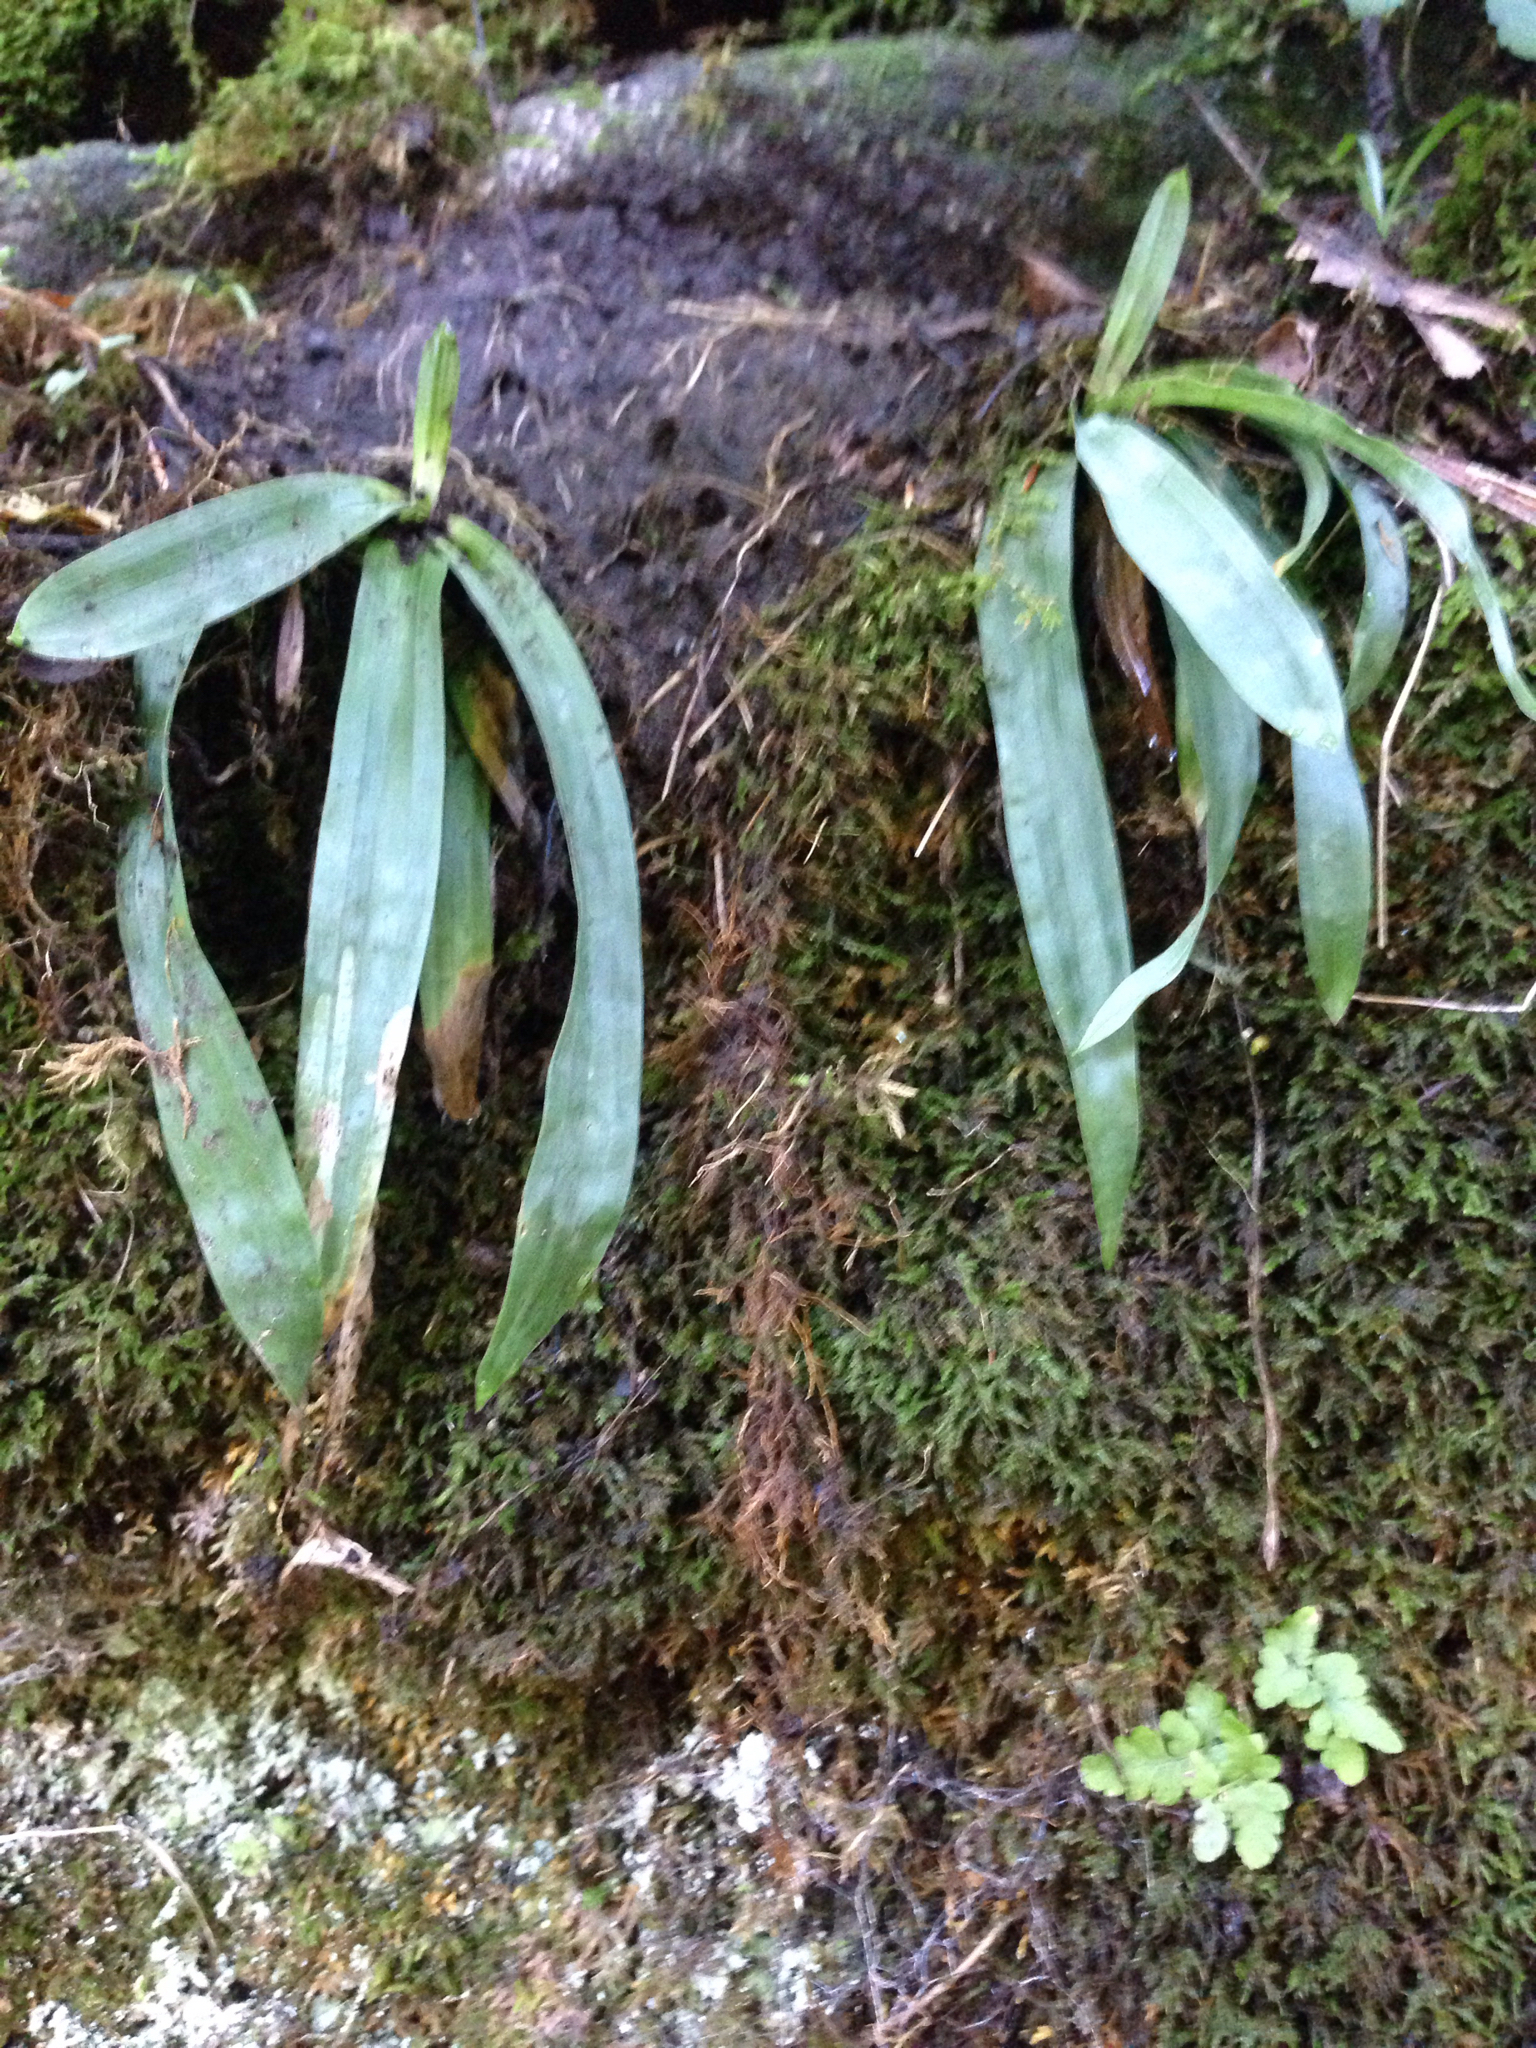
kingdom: Plantae
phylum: Tracheophyta
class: Liliopsida
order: Poales
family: Cyperaceae
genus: Carex
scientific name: Carex platyphylla
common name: Broad-leaved sedge
